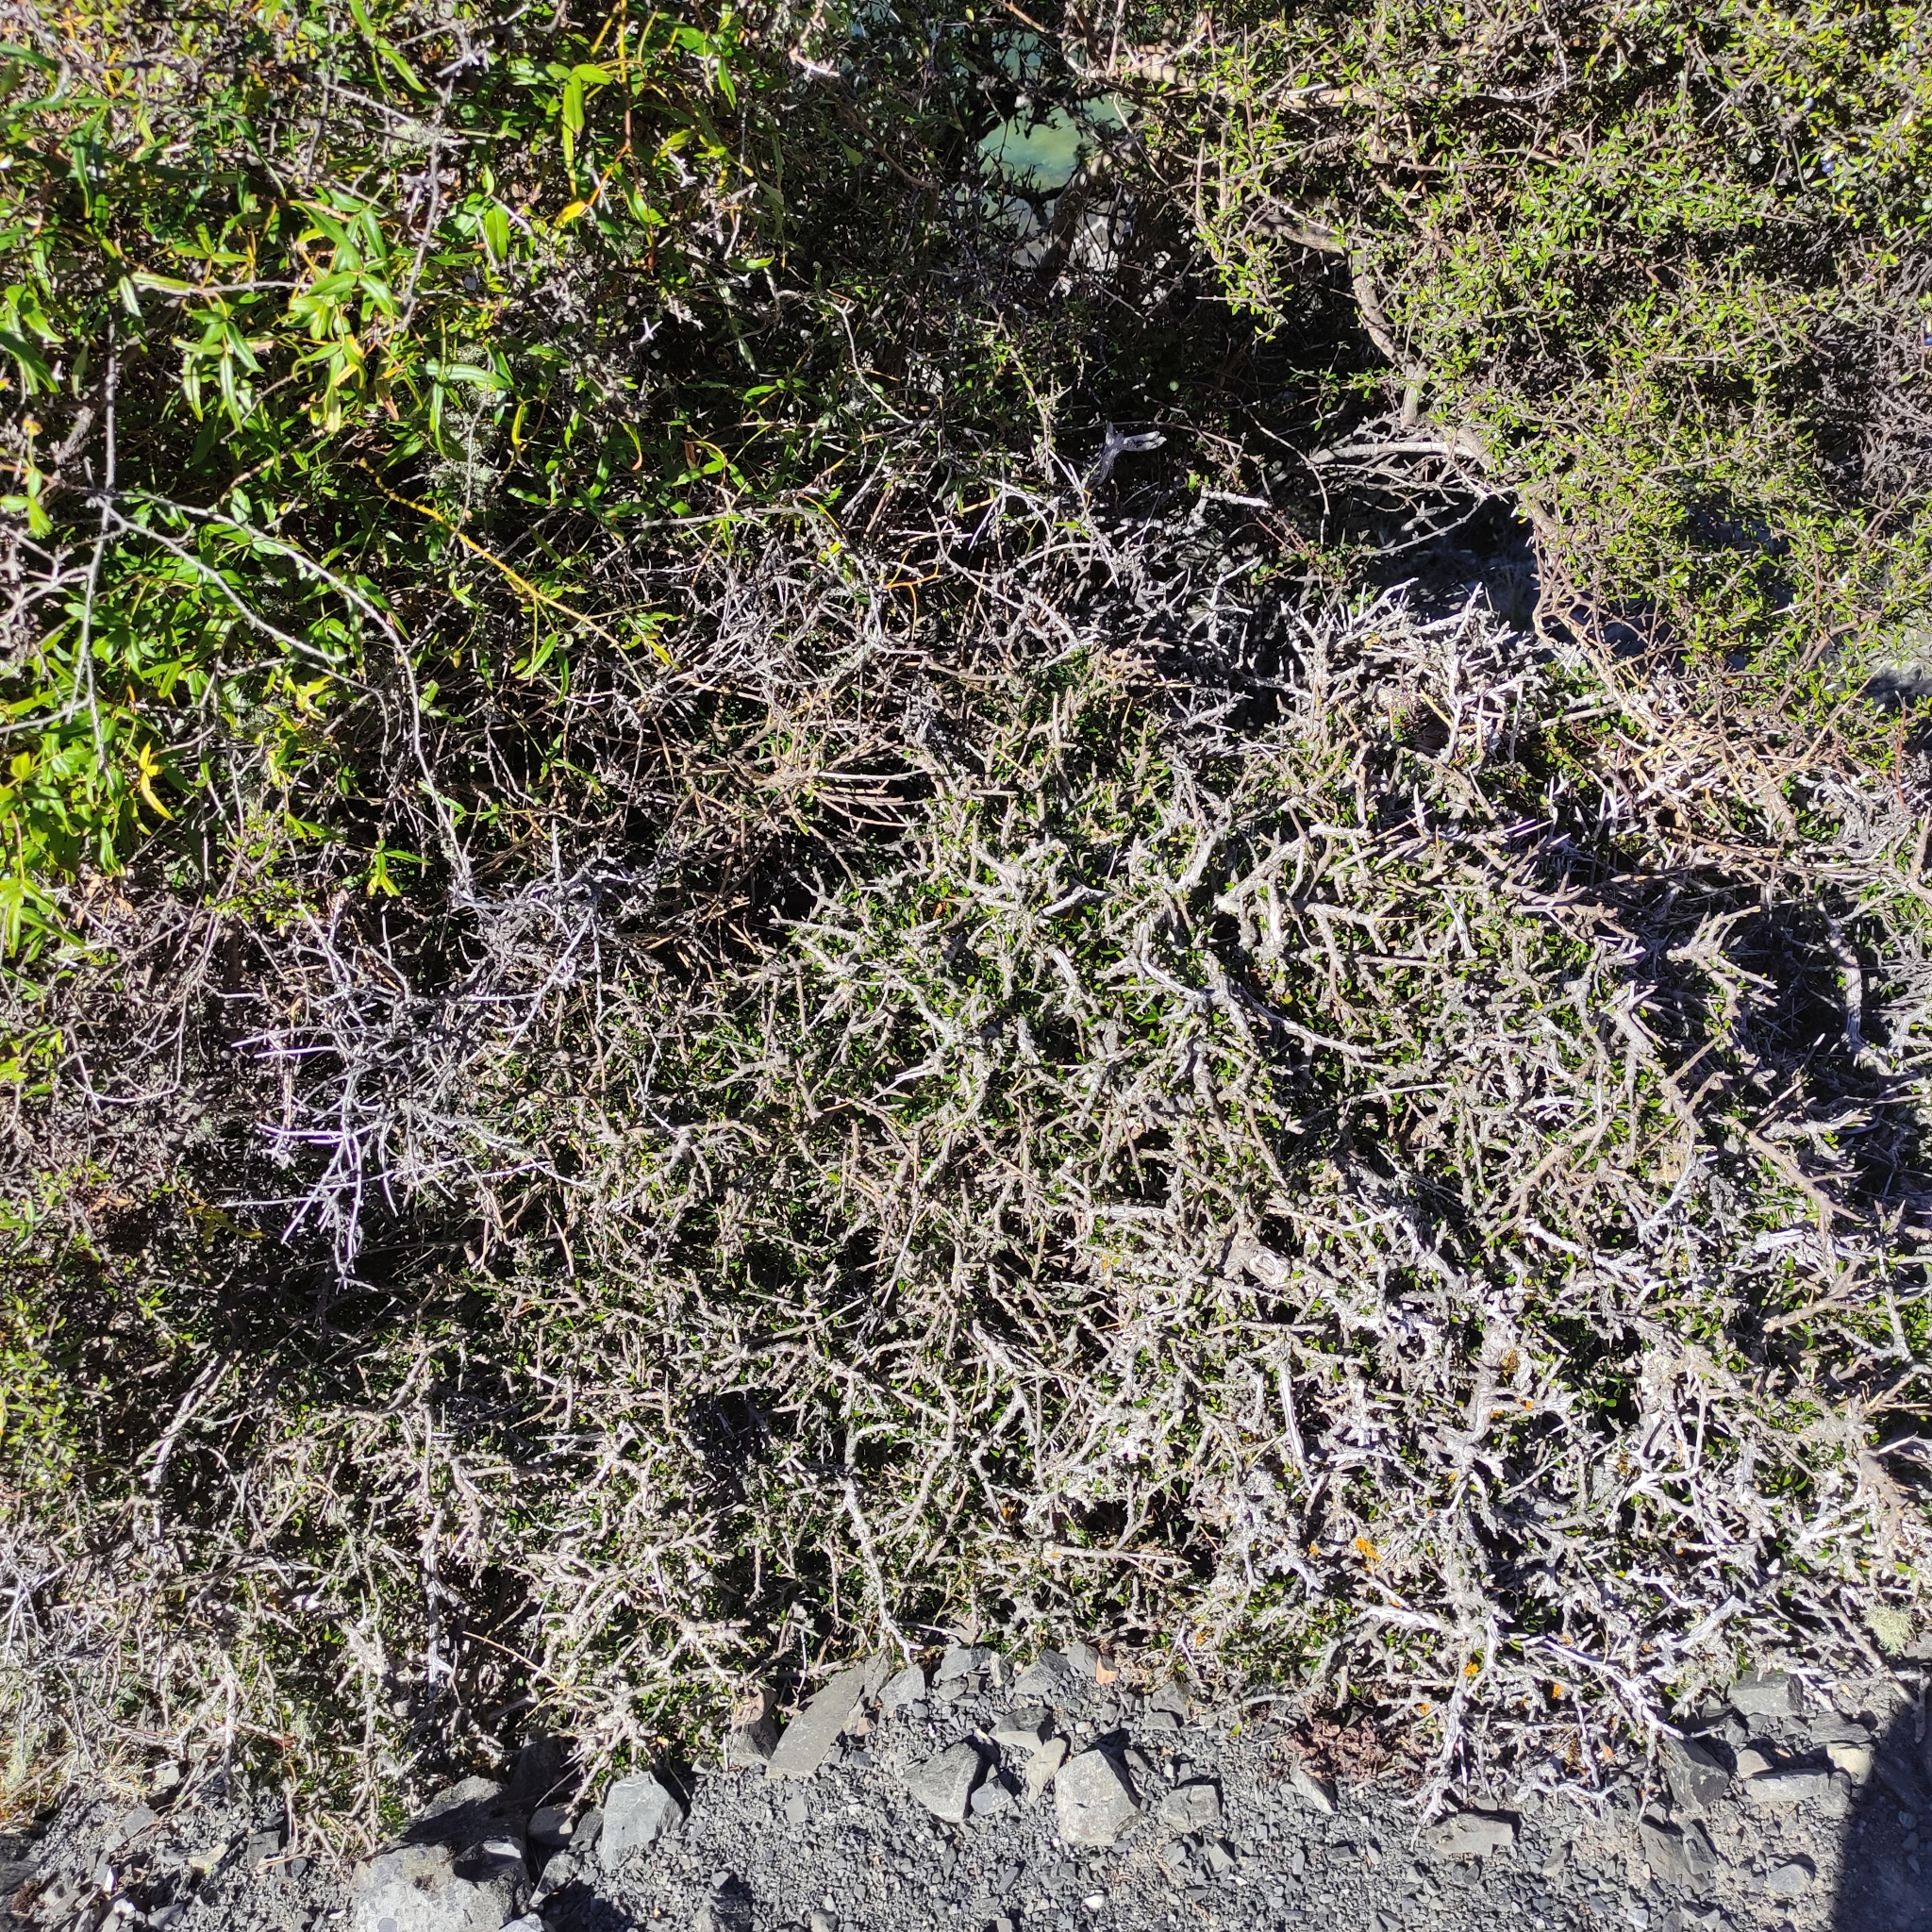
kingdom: Plantae
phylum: Tracheophyta
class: Magnoliopsida
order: Malpighiales
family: Violaceae
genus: Melicytus
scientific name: Melicytus alpinus
